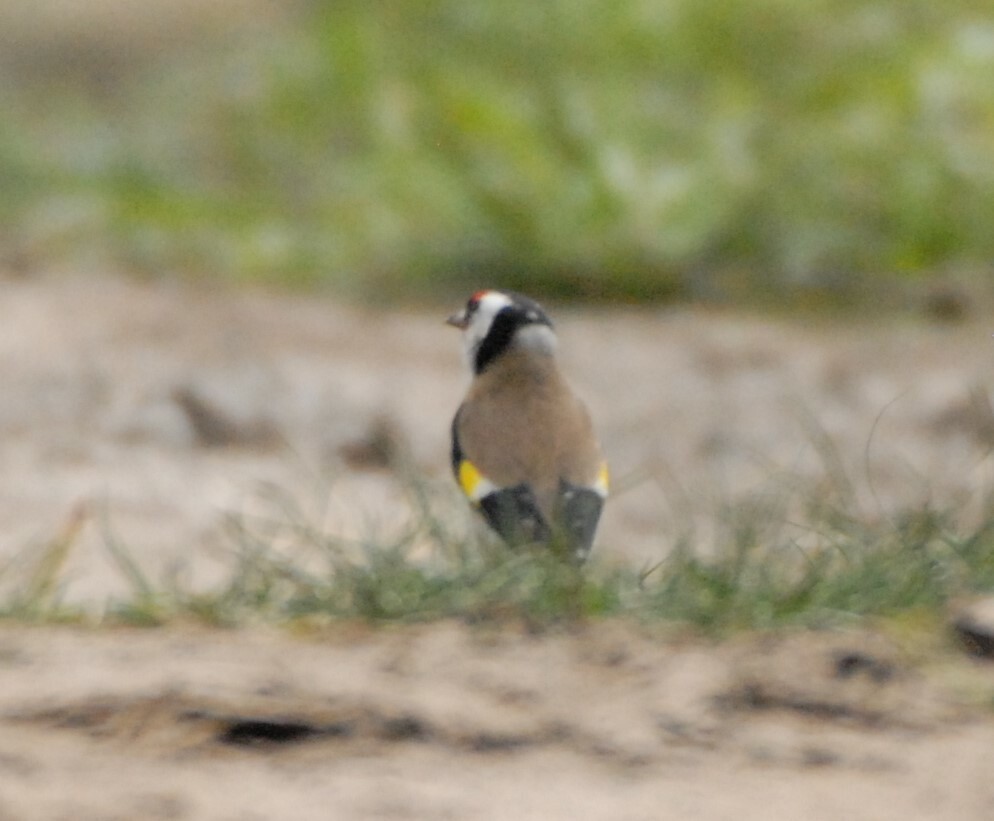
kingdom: Animalia
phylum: Chordata
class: Aves
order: Passeriformes
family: Fringillidae
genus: Carduelis
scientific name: Carduelis carduelis
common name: European goldfinch
